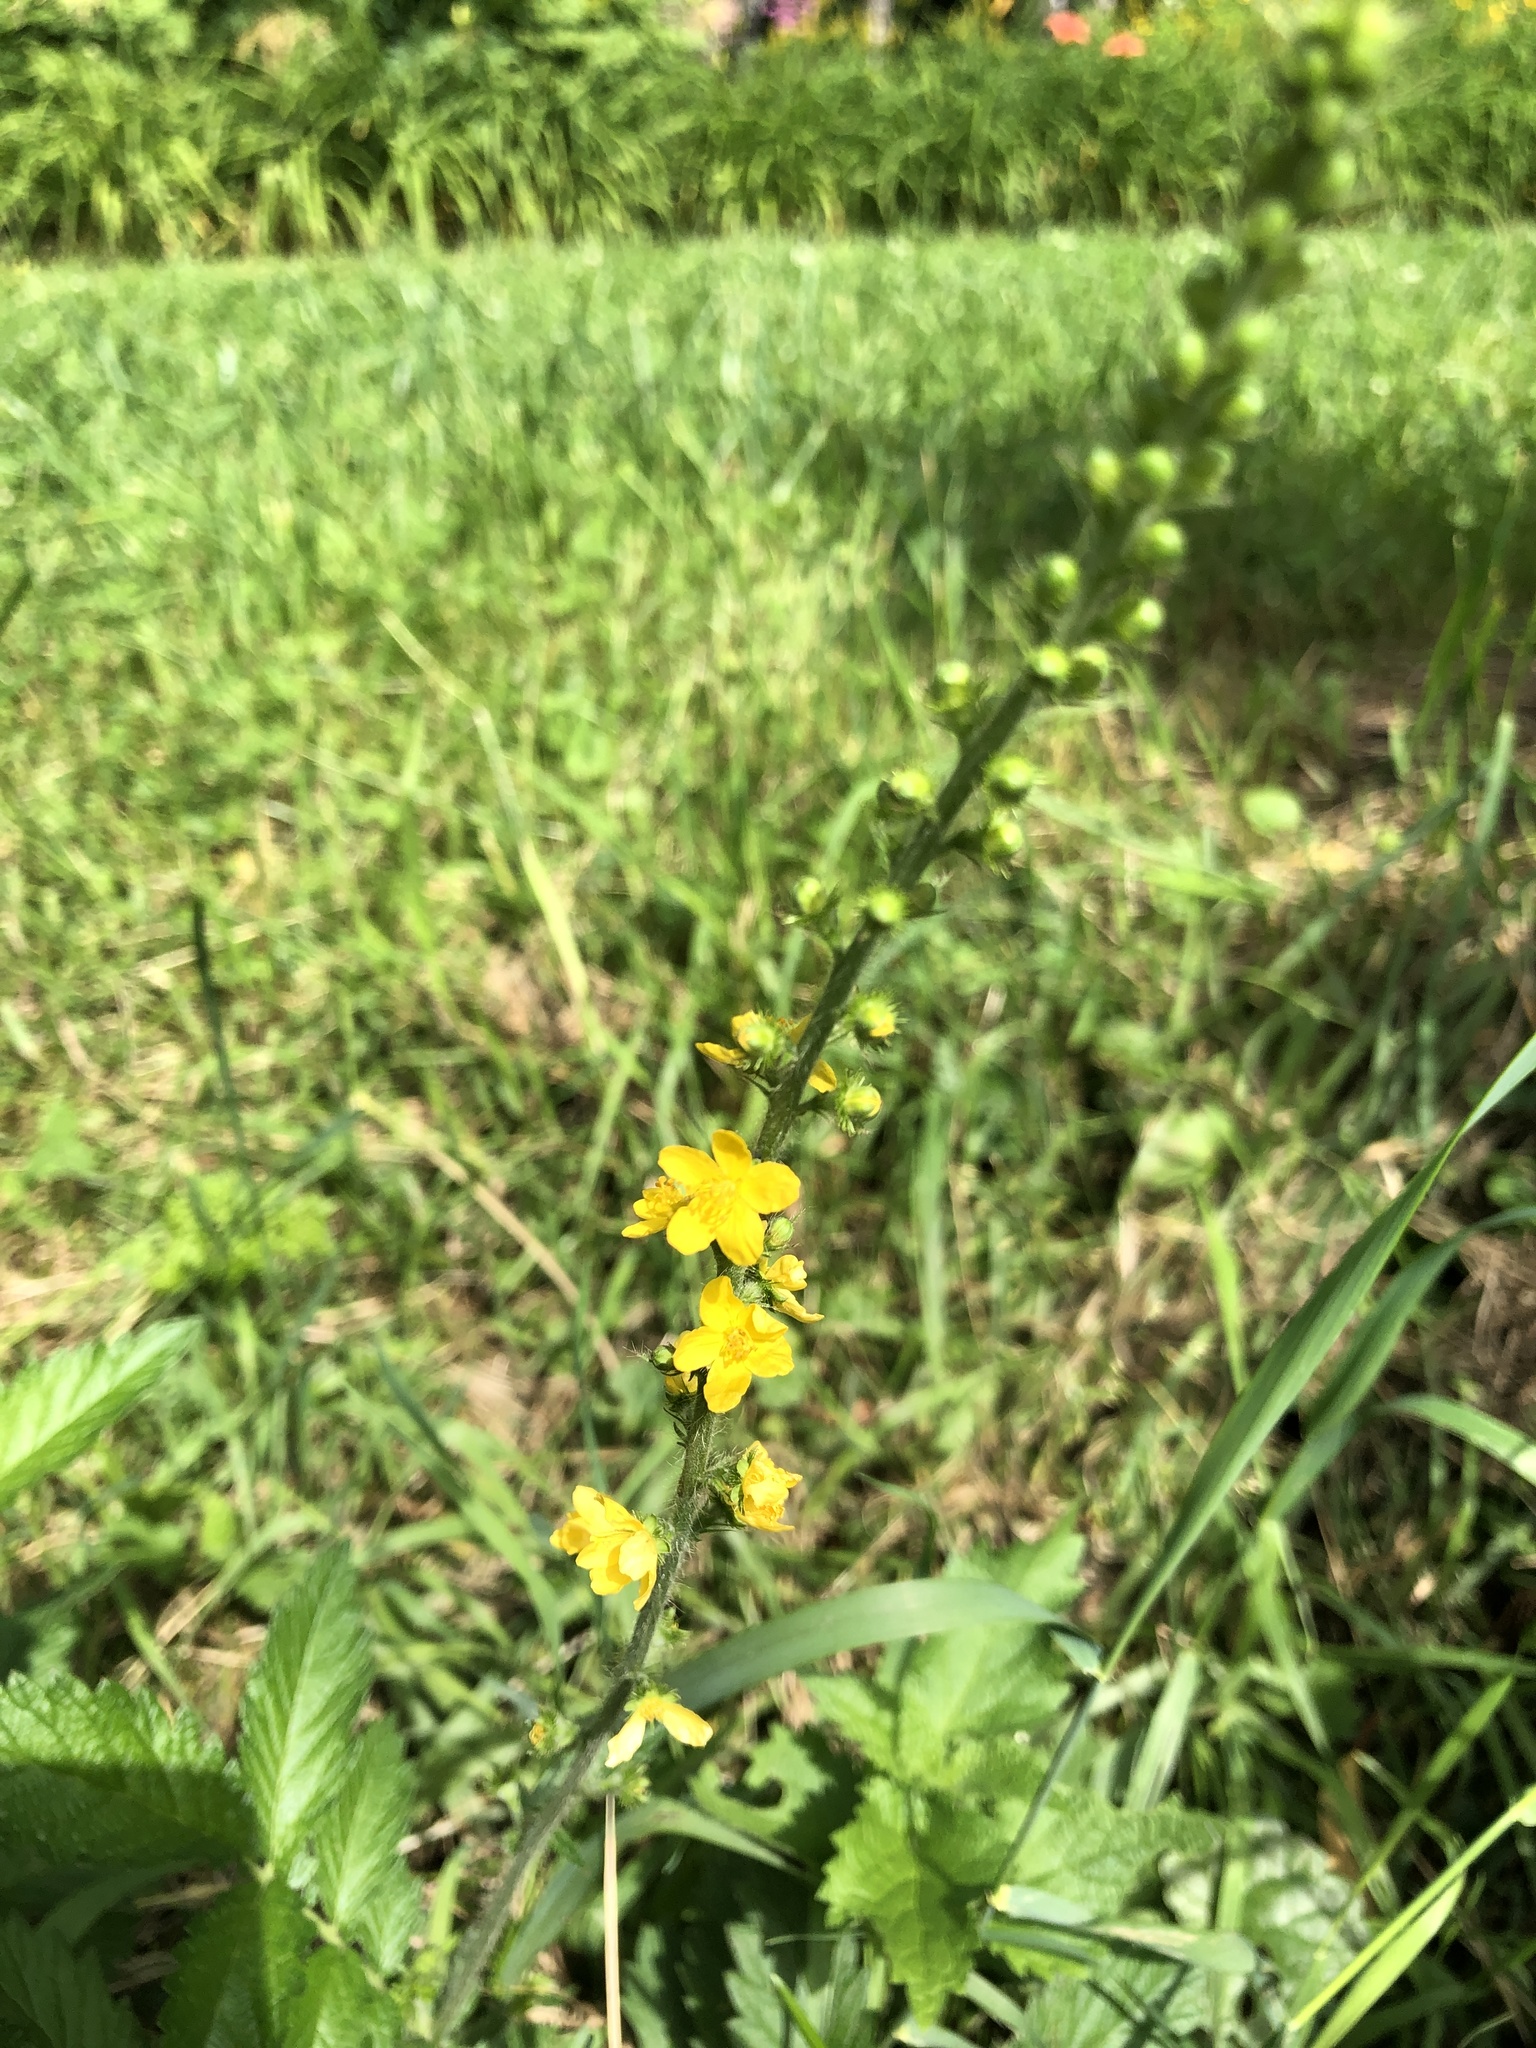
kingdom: Plantae
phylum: Tracheophyta
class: Magnoliopsida
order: Rosales
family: Rosaceae
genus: Agrimonia
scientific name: Agrimonia eupatoria
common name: Agrimony
